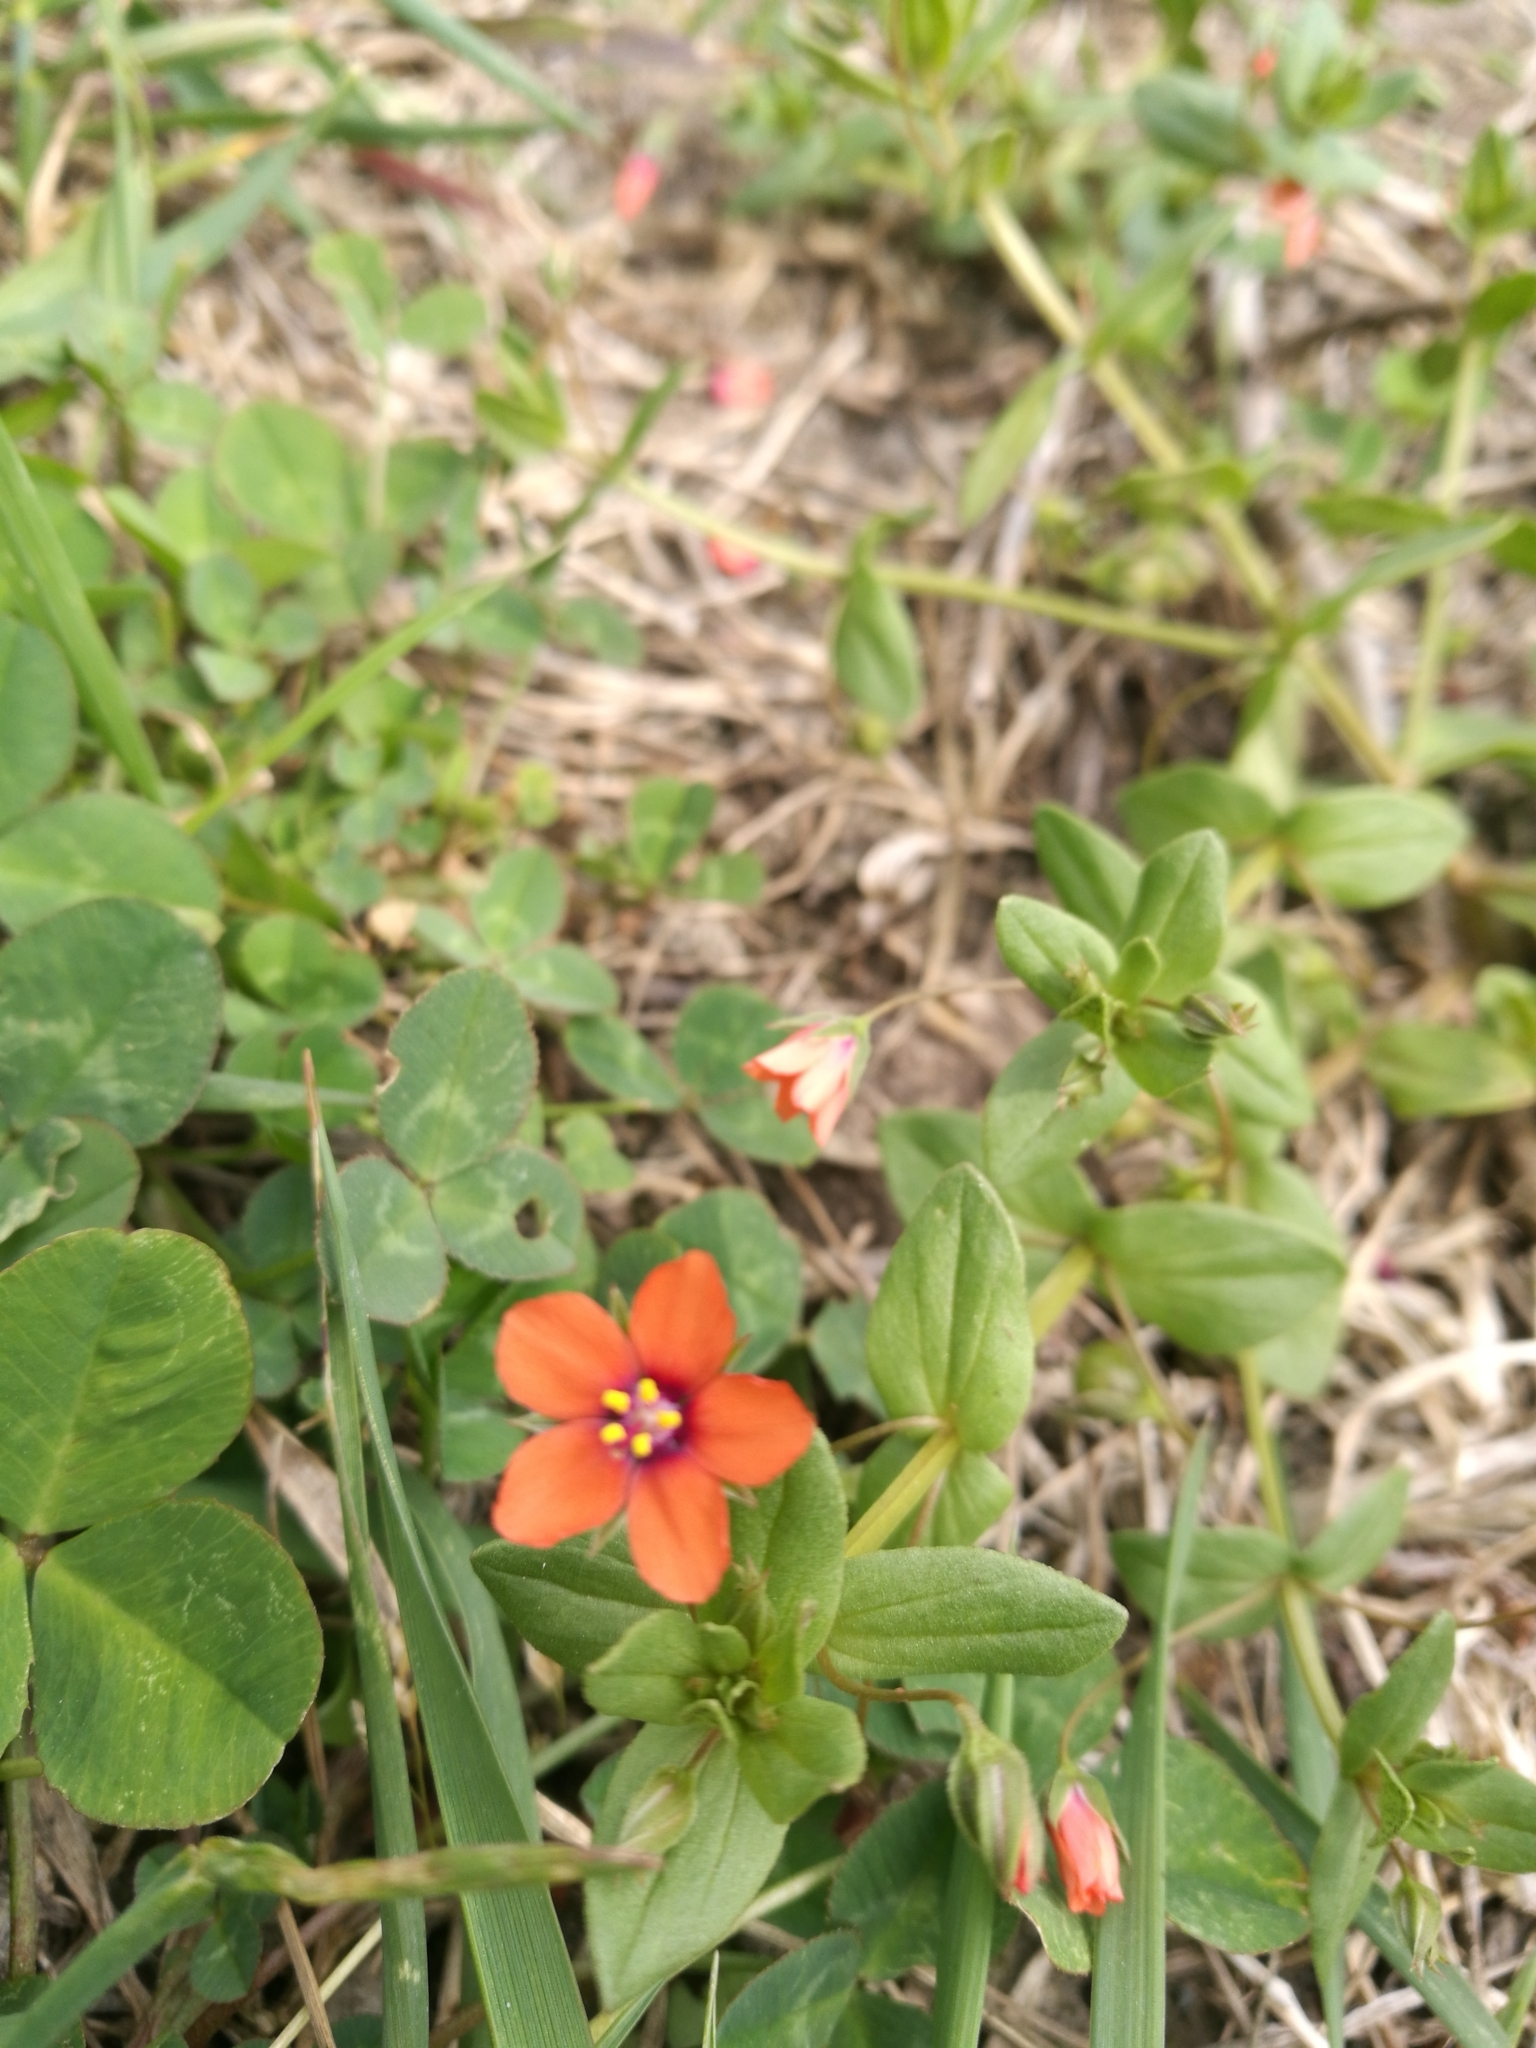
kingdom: Plantae
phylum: Tracheophyta
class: Magnoliopsida
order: Ericales
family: Primulaceae
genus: Lysimachia
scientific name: Lysimachia arvensis
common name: Scarlet pimpernel
